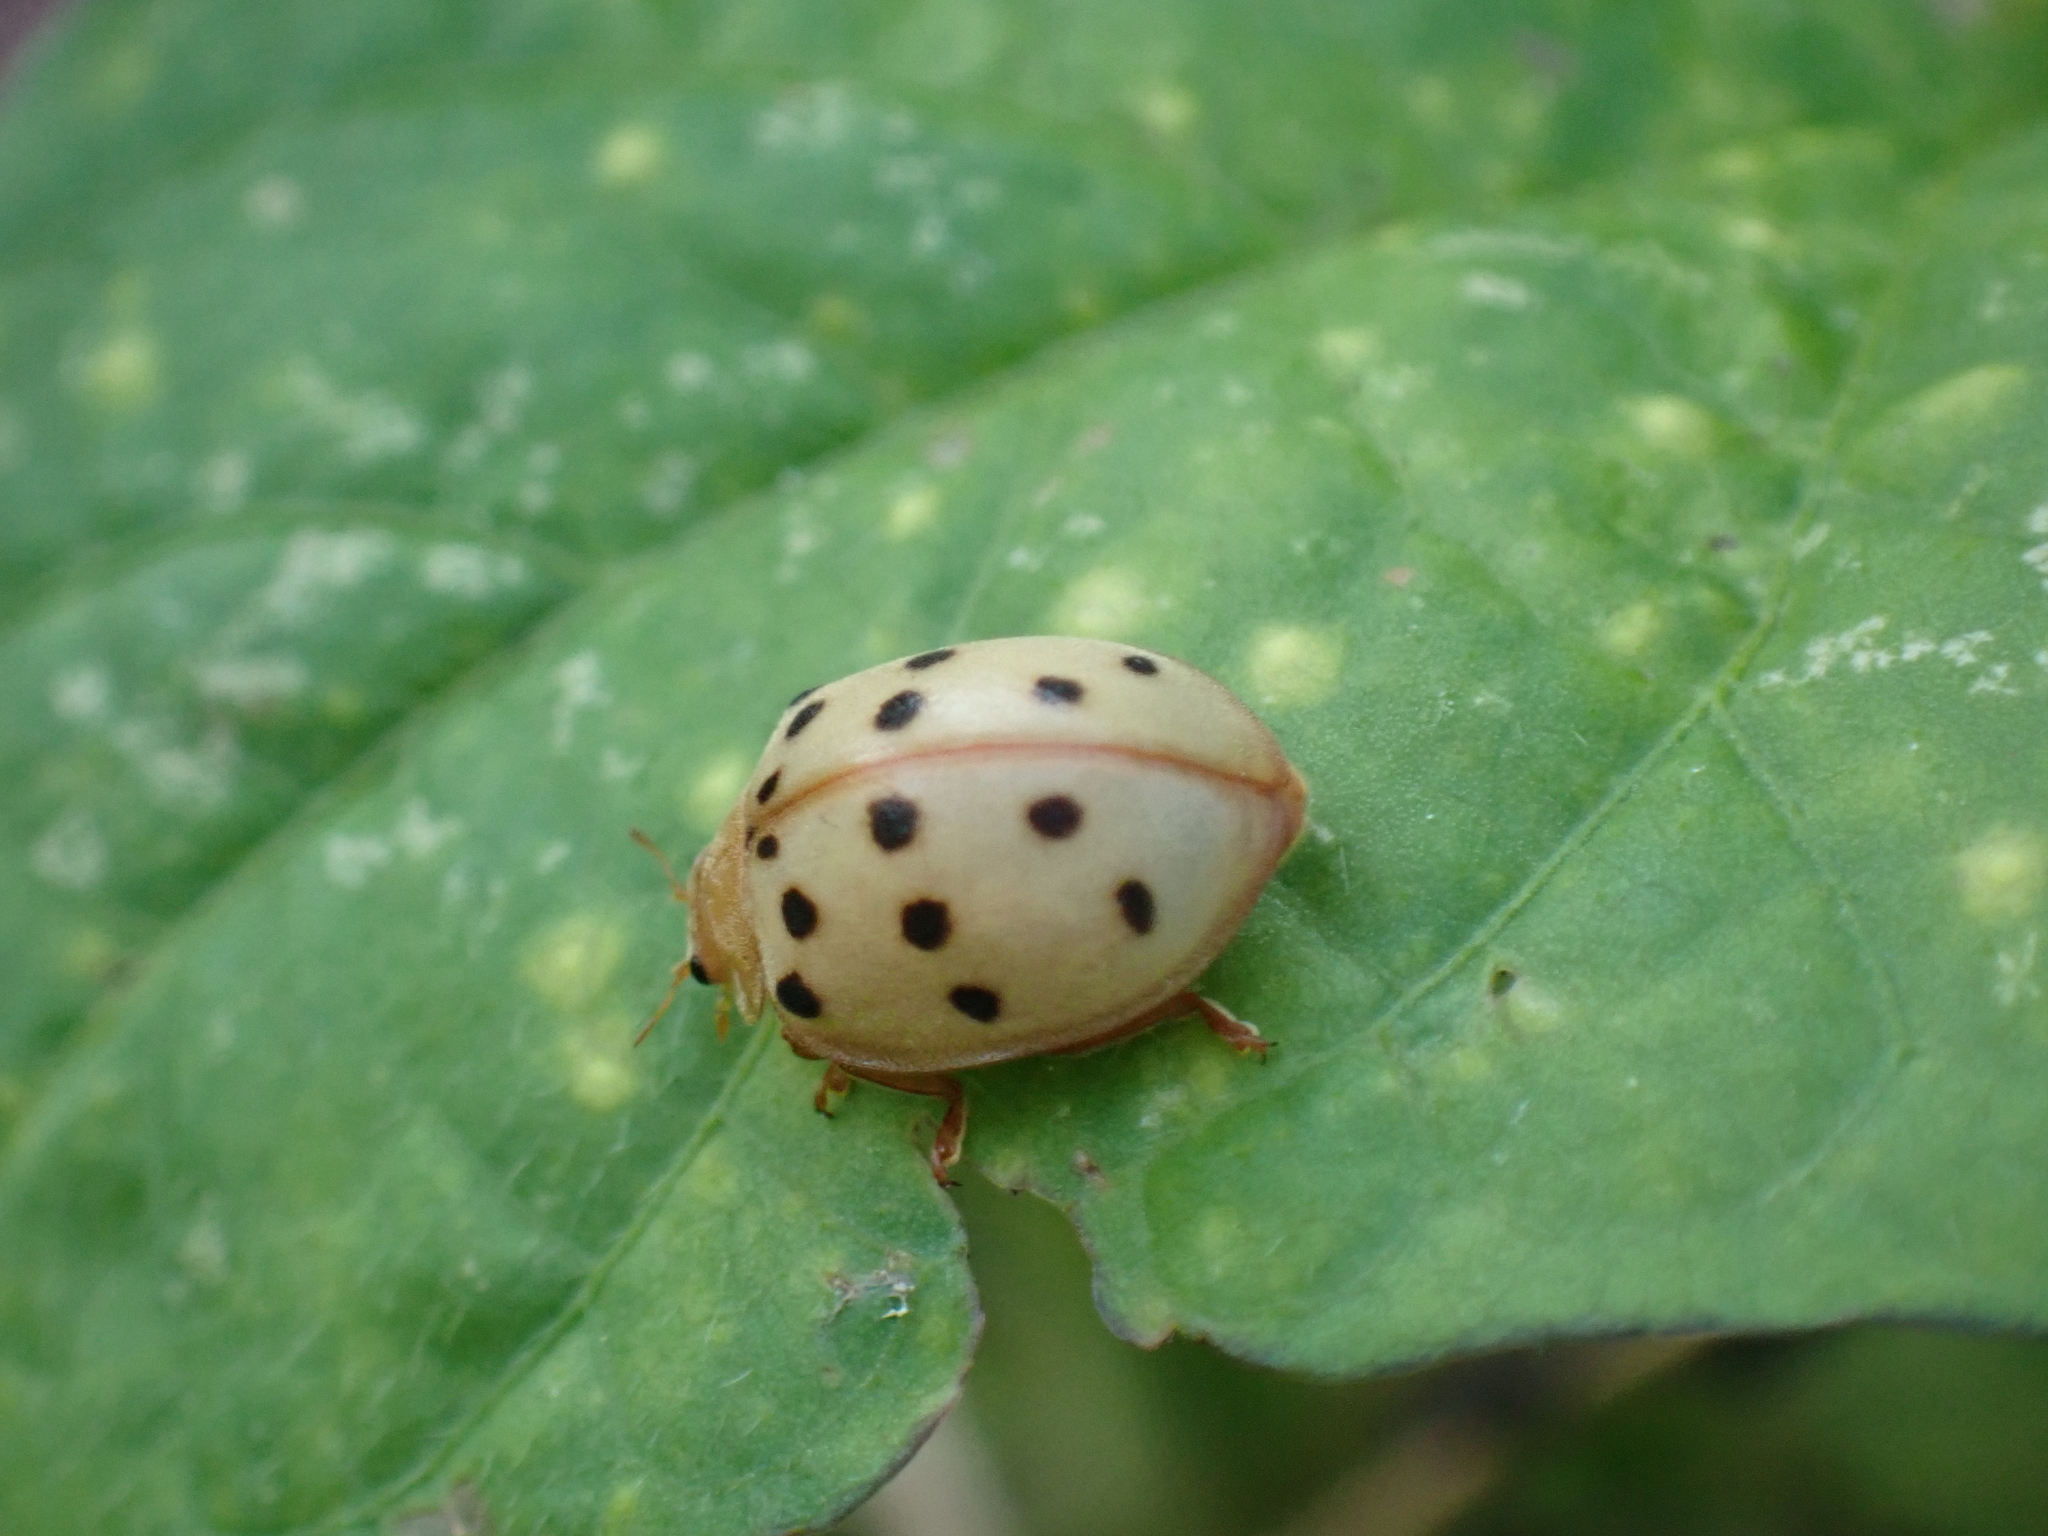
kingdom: Animalia
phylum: Arthropoda
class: Insecta
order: Coleoptera
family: Coccinellidae
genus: Epilachna
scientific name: Epilachna varivestis
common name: Ladybird beetle
